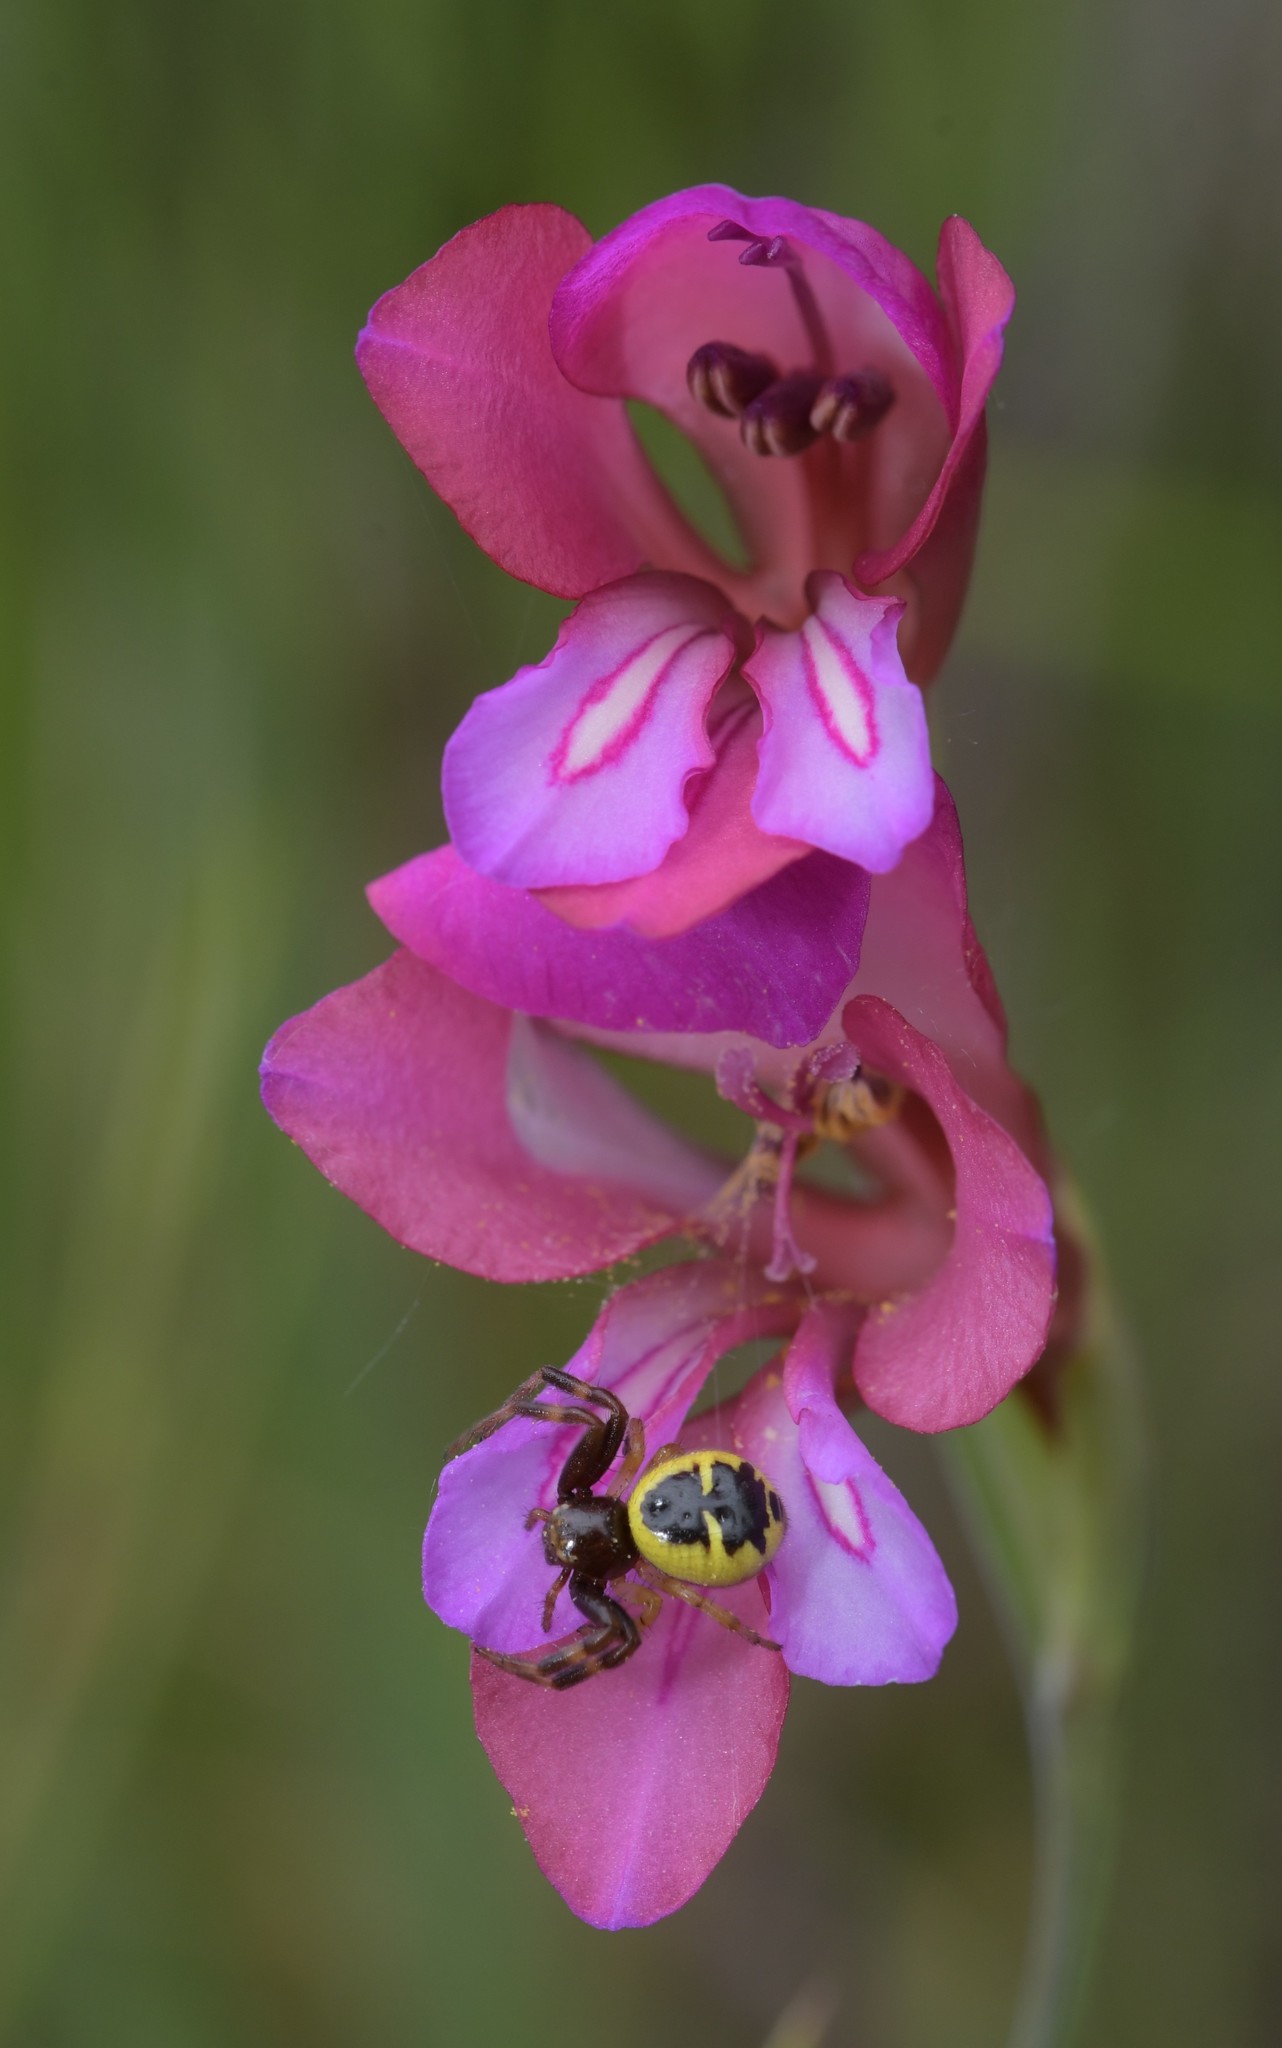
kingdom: Animalia
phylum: Arthropoda
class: Arachnida
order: Araneae
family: Thomisidae
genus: Synema
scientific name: Synema globosum
